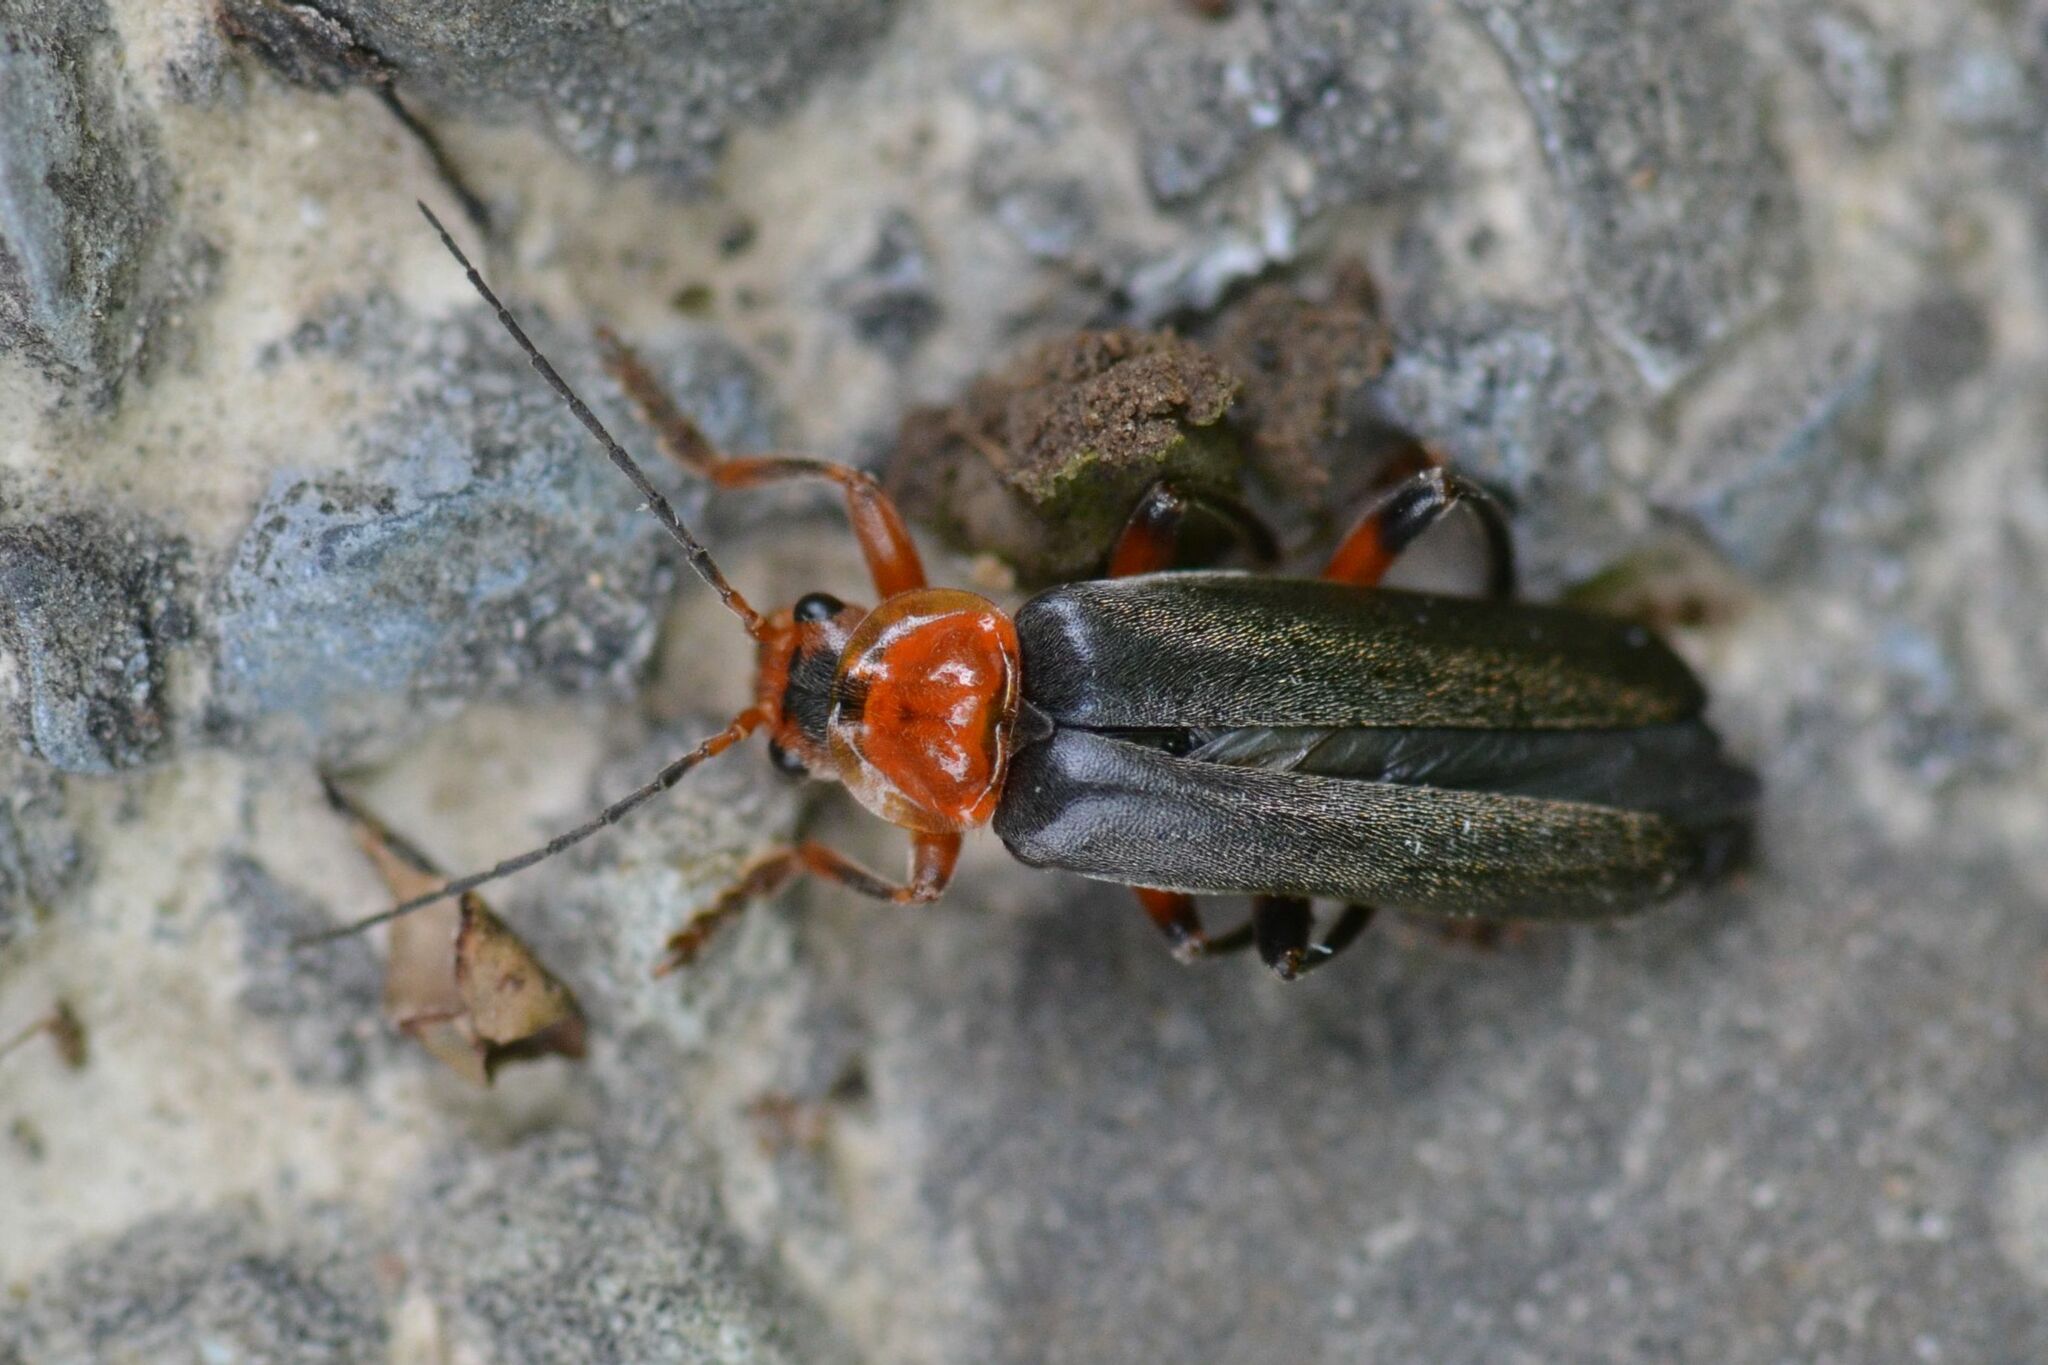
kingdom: Animalia
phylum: Arthropoda
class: Insecta
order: Coleoptera
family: Cantharidae
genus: Cantharis
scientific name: Cantharis livida
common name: Livid soldier beetle
